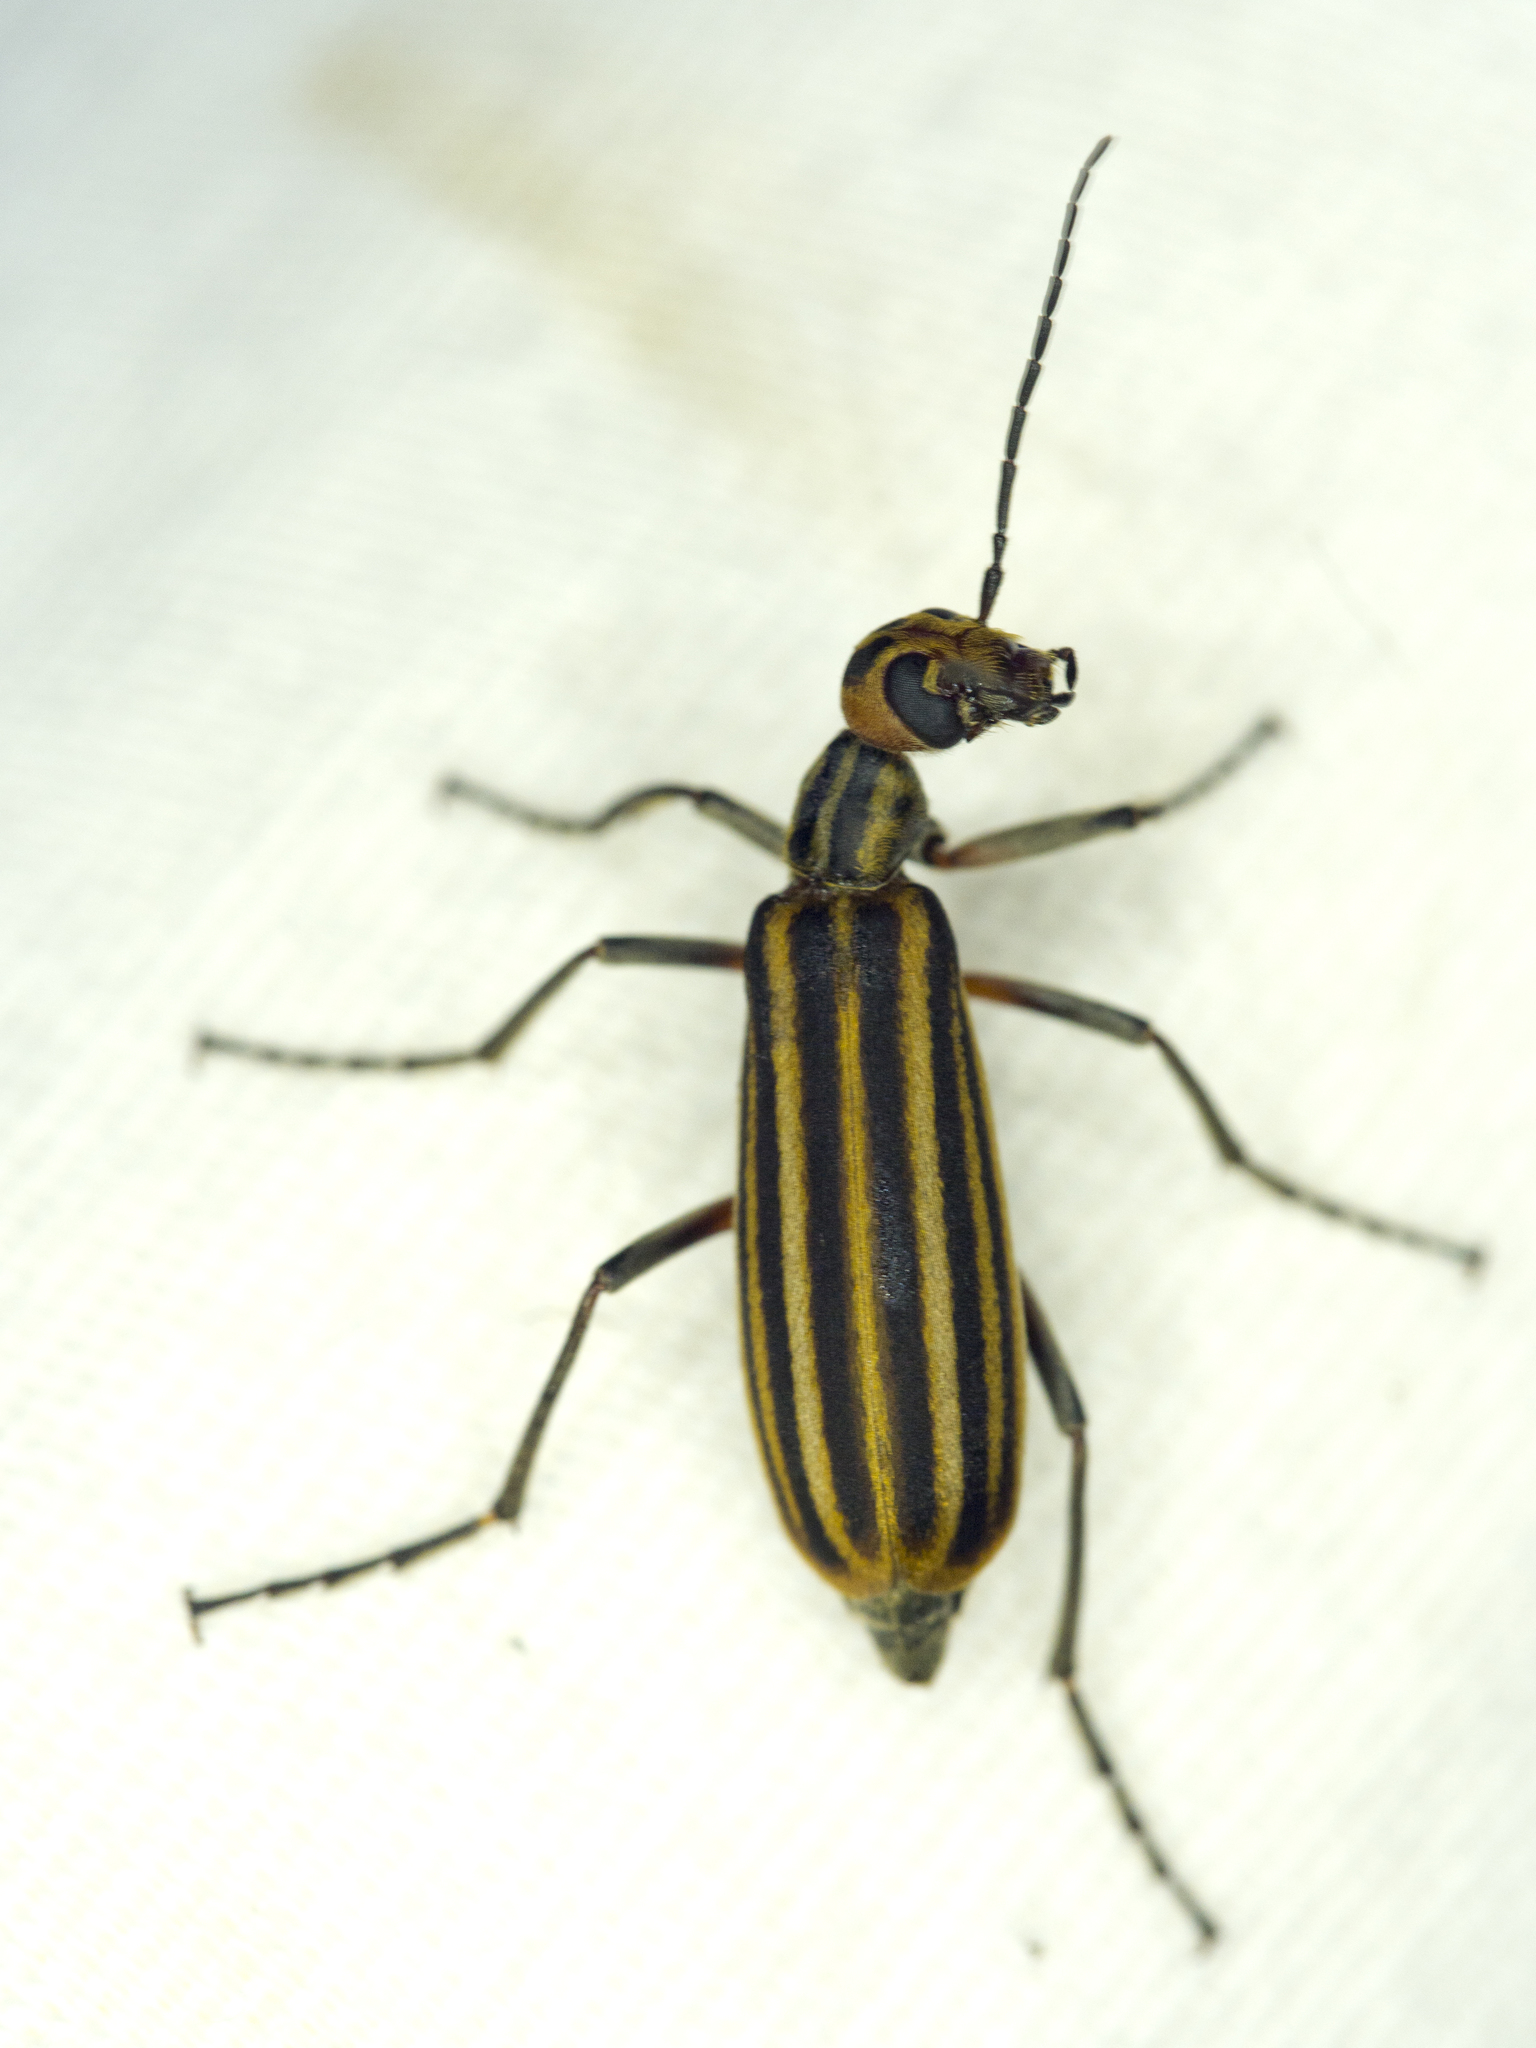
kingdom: Animalia
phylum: Arthropoda
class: Insecta
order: Coleoptera
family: Meloidae
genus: Epicauta
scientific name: Epicauta vittata
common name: Old-fashioned potato beetle
